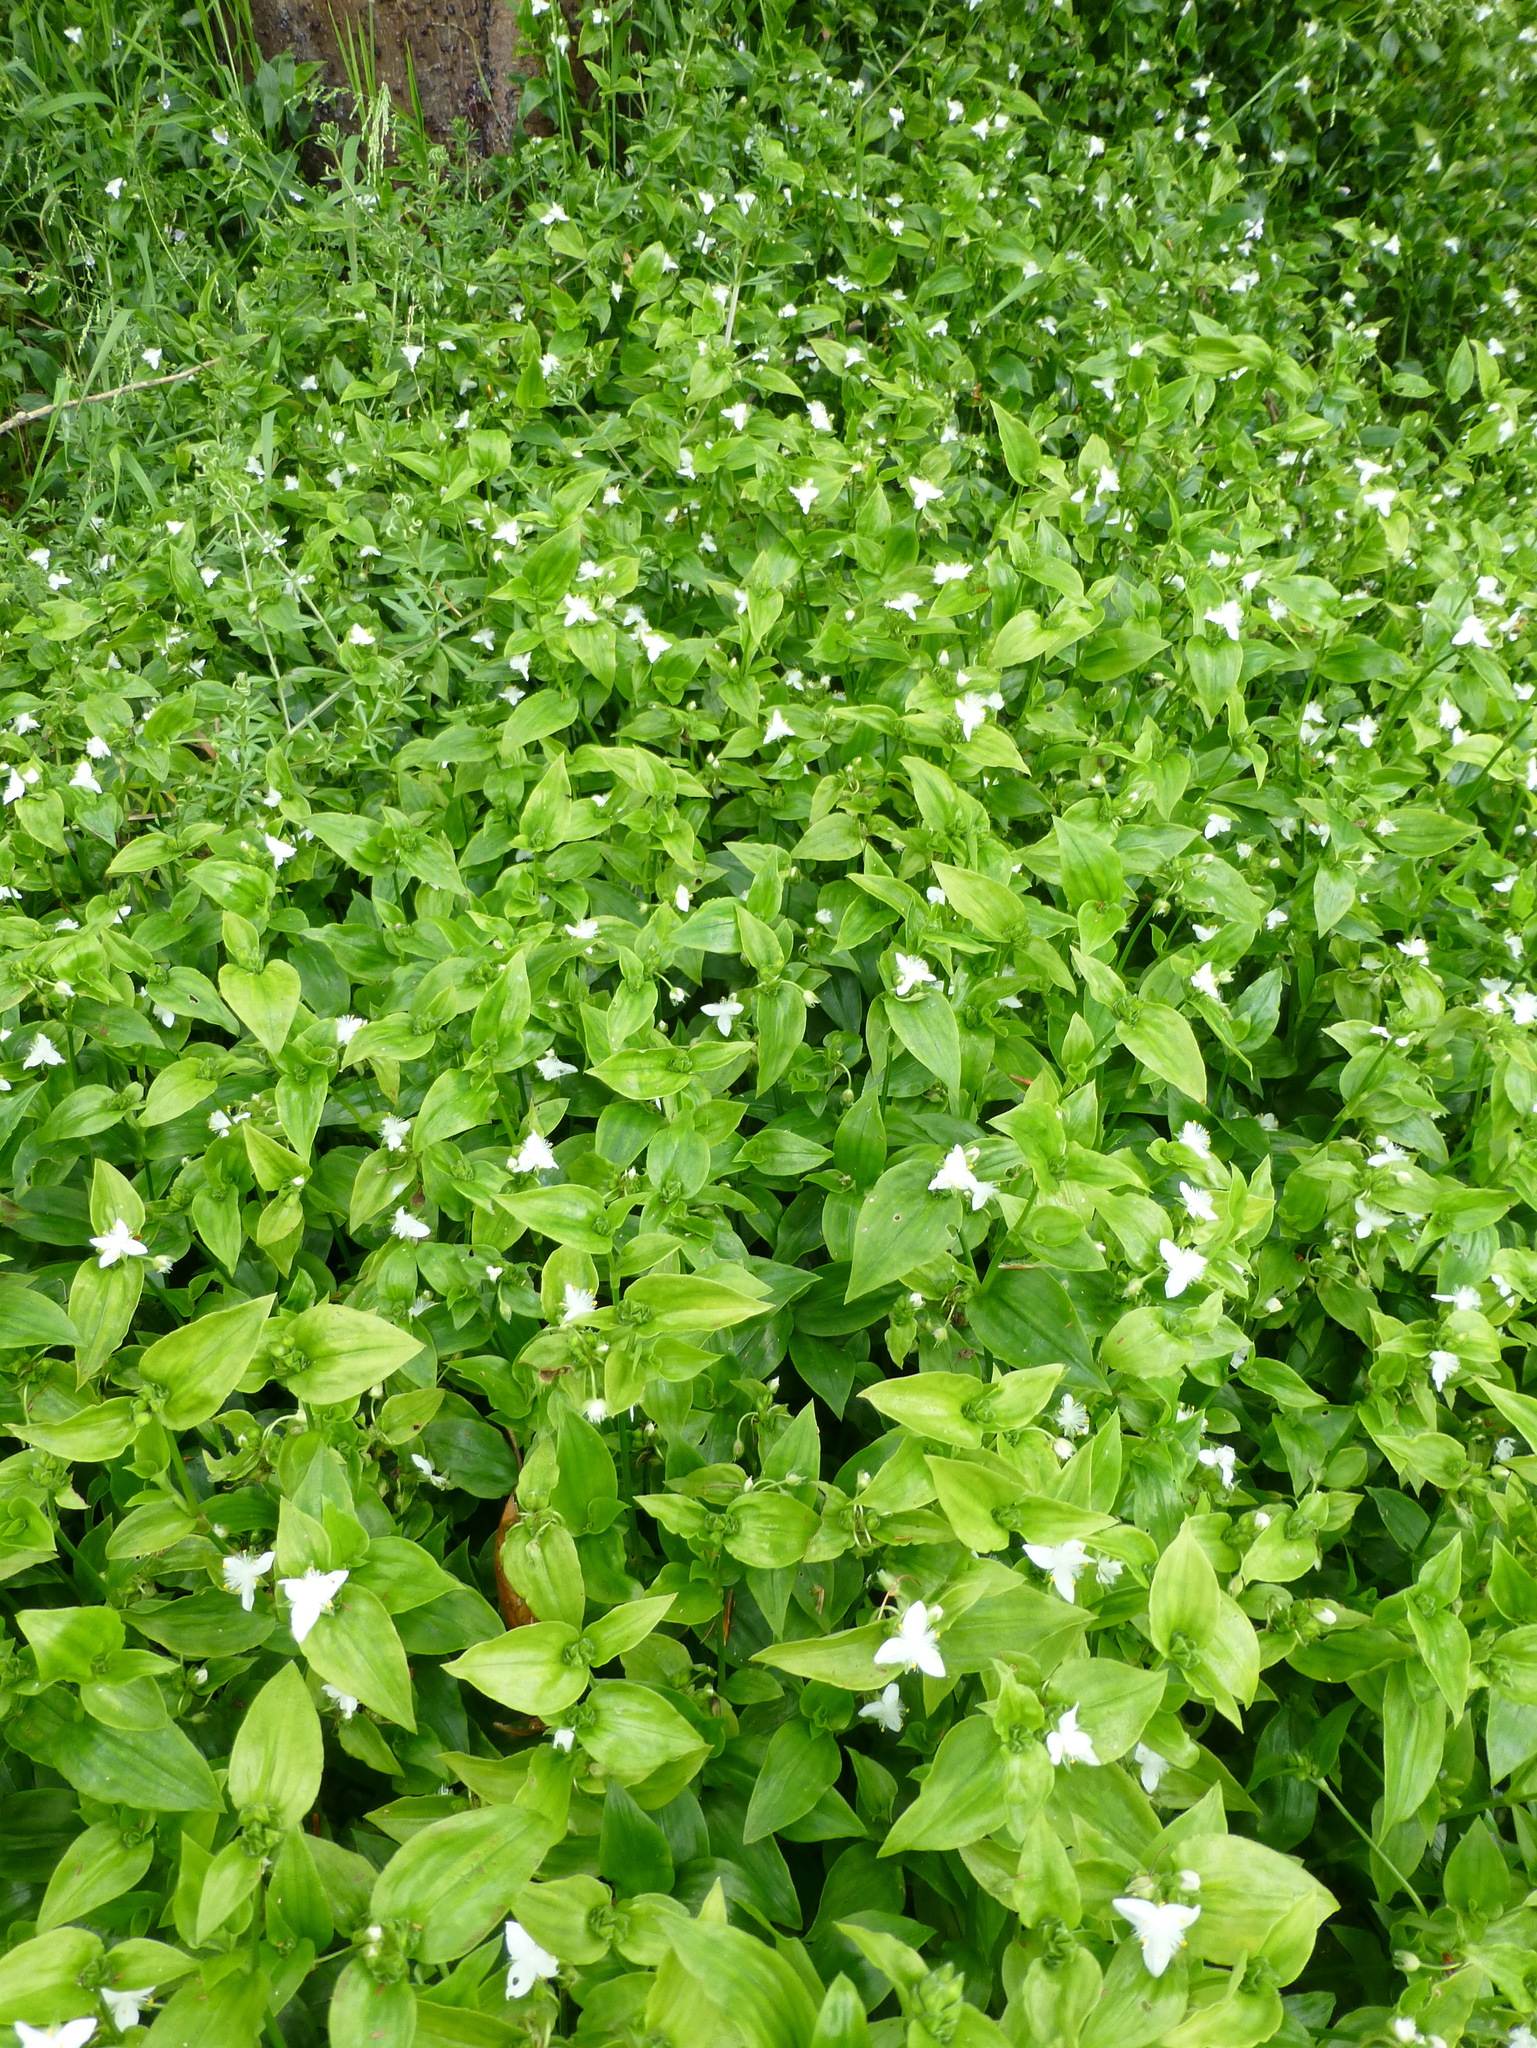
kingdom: Plantae
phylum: Tracheophyta
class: Liliopsida
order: Commelinales
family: Commelinaceae
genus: Tradescantia
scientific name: Tradescantia fluminensis
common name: Wandering-jew
